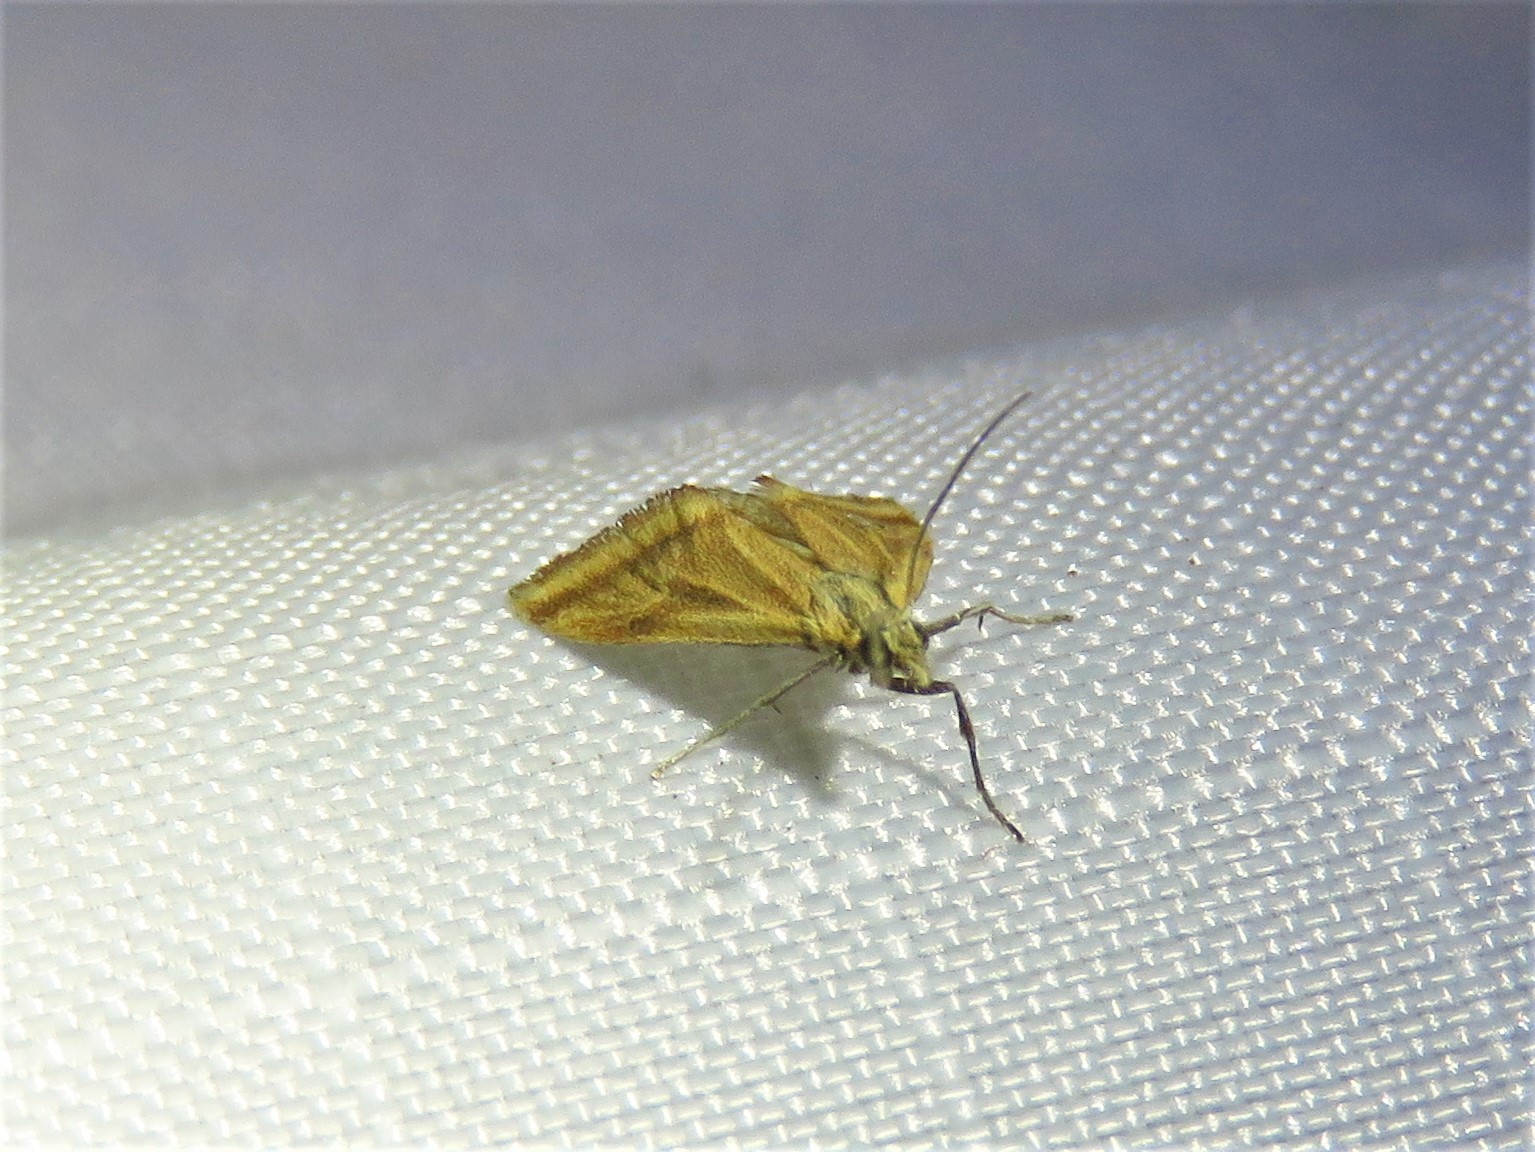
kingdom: Animalia
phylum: Arthropoda
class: Insecta
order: Lepidoptera
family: Crambidae
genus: Microtheoris
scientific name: Microtheoris vibicalis
